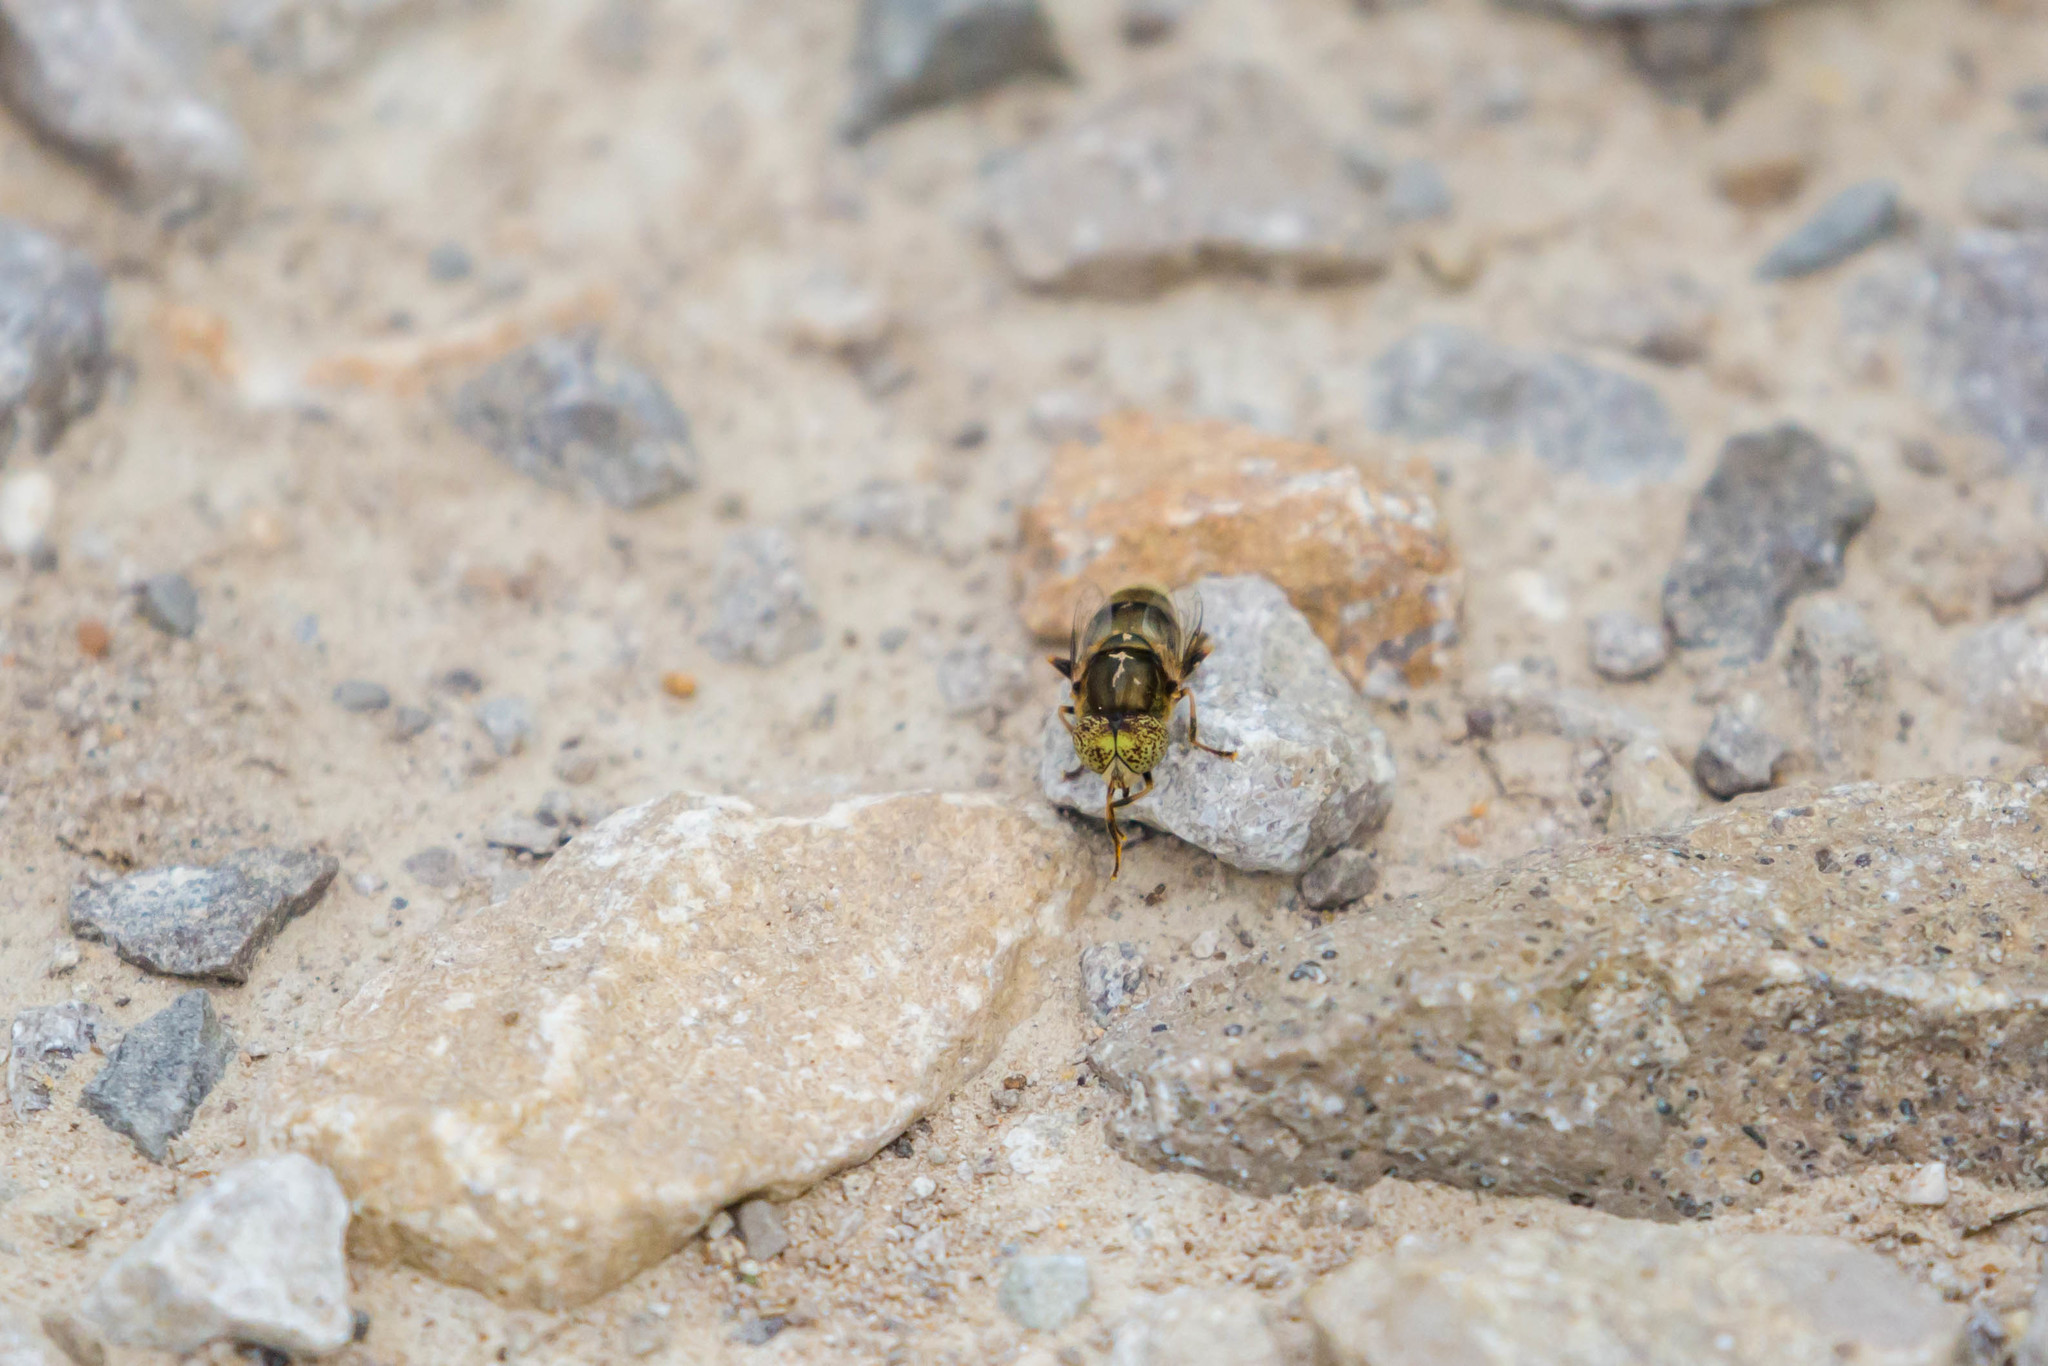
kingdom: Animalia
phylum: Arthropoda
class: Insecta
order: Diptera
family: Syrphidae
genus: Eristalinus
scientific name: Eristalinus aeneus
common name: Syrphid fly
